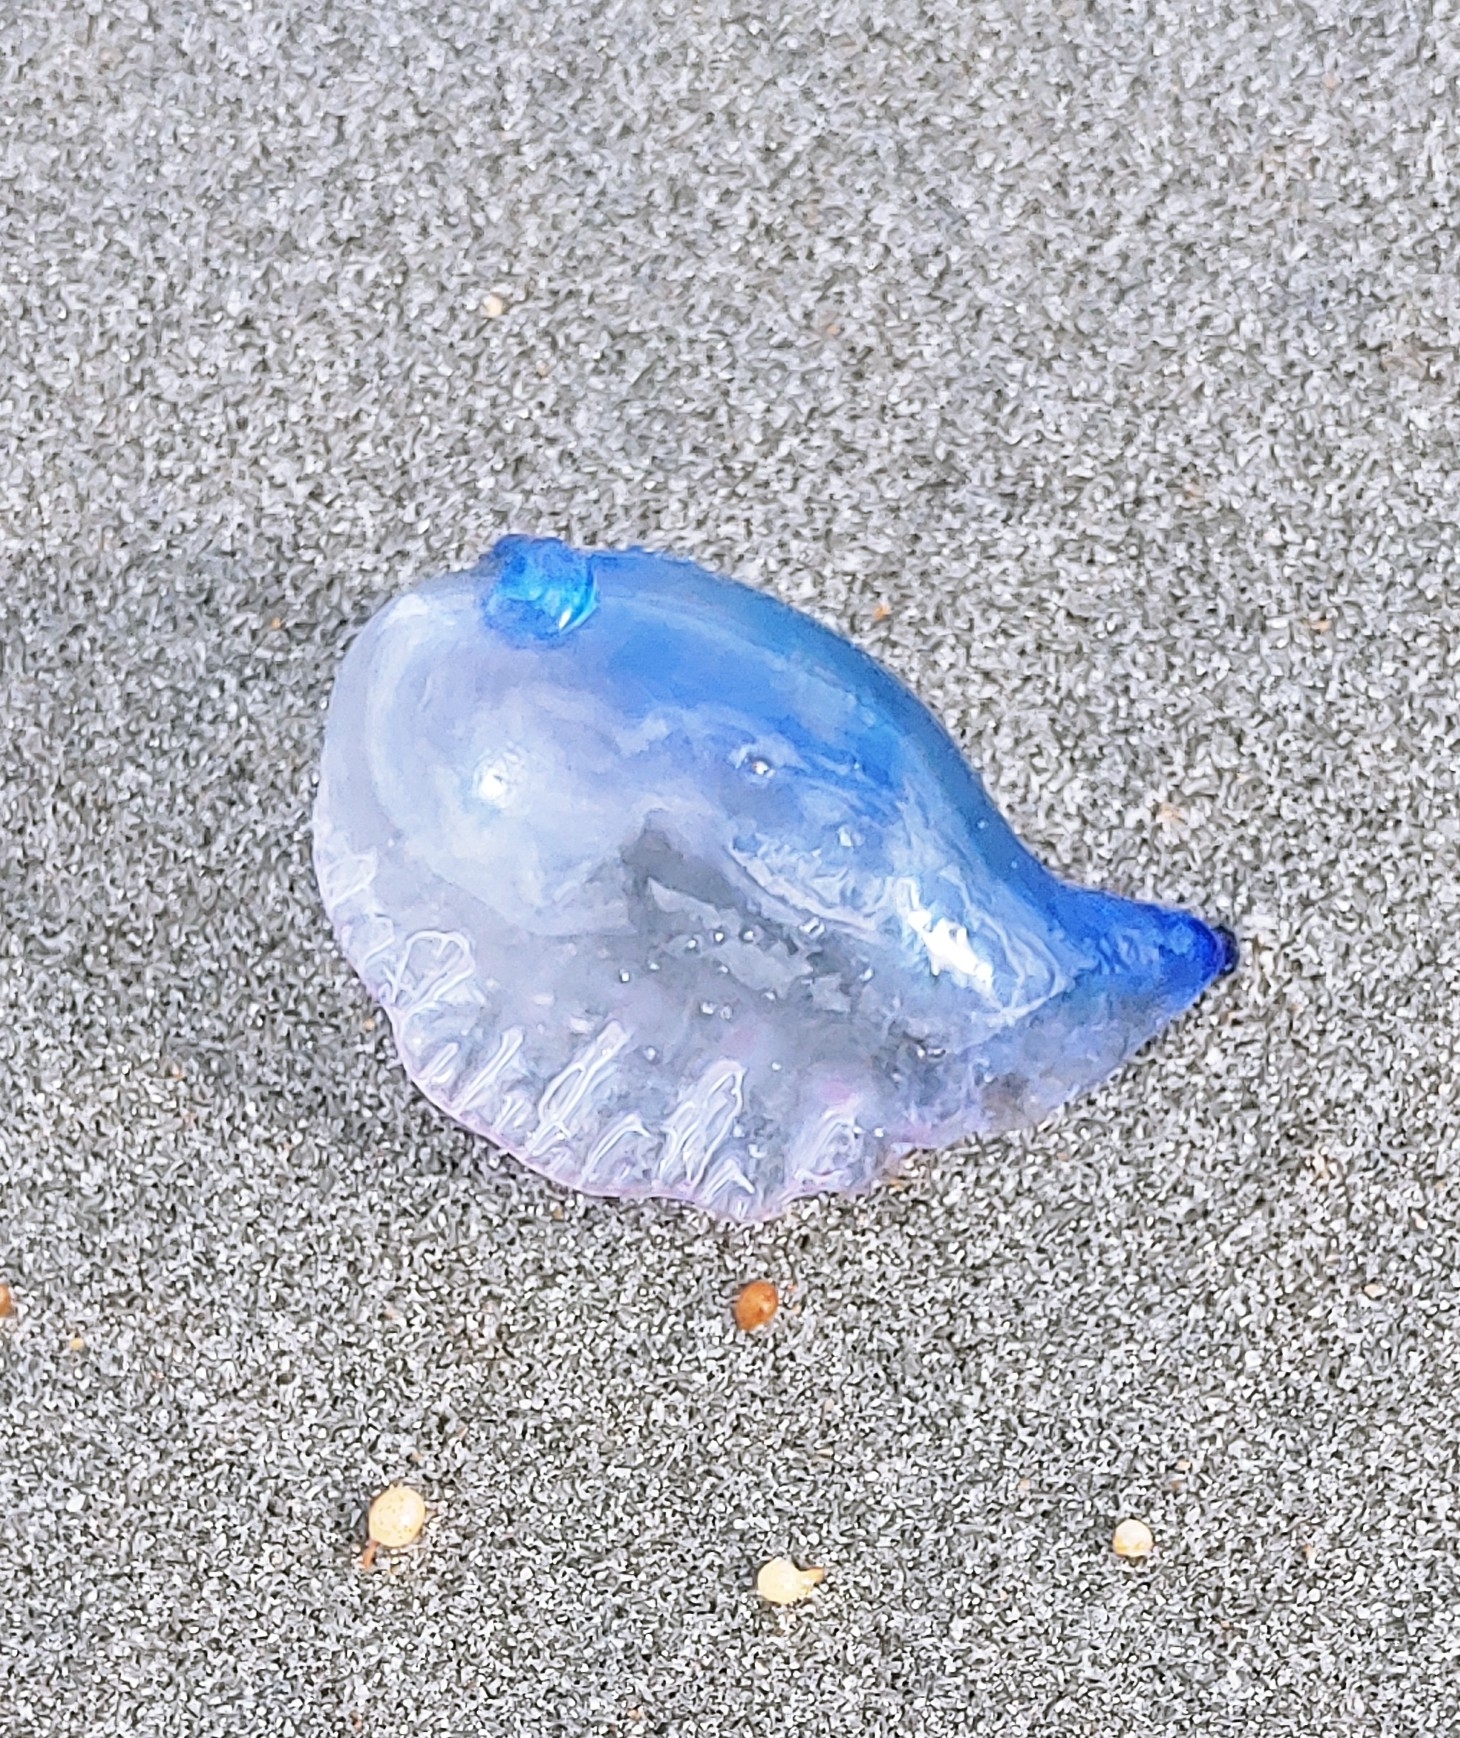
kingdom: Animalia
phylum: Cnidaria
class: Hydrozoa
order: Siphonophorae
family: Physaliidae
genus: Physalia
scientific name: Physalia physalis
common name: Portuguese man-of-war
